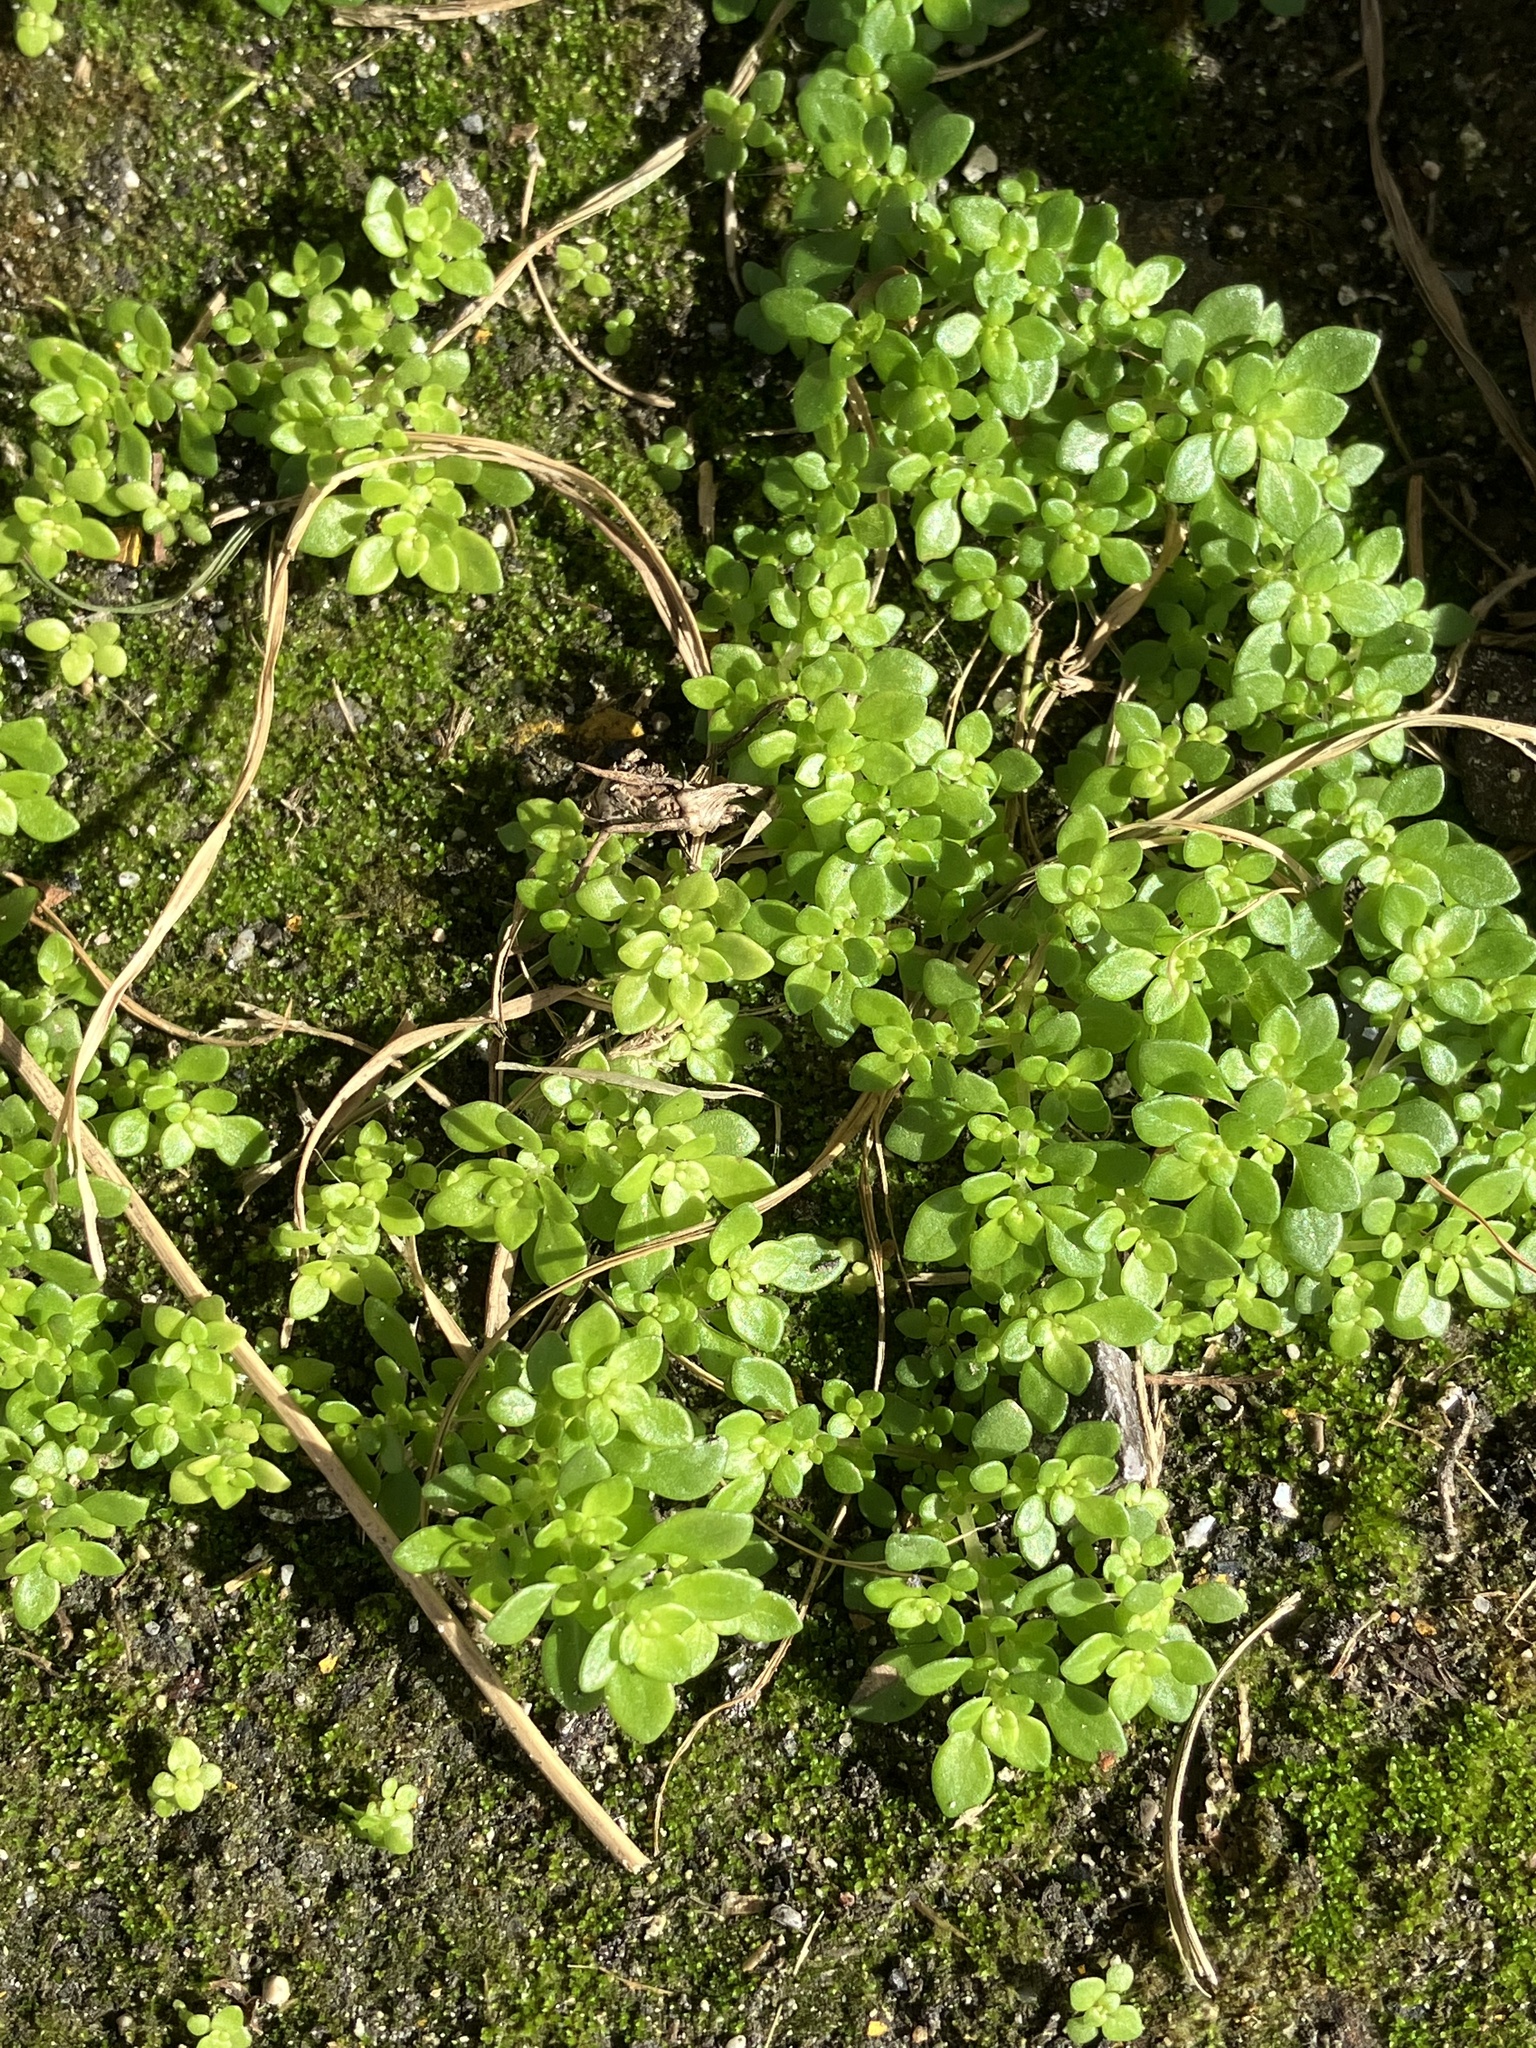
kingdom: Plantae
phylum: Tracheophyta
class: Magnoliopsida
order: Rosales
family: Urticaceae
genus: Pilea
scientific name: Pilea microphylla
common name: Artillery-plant
